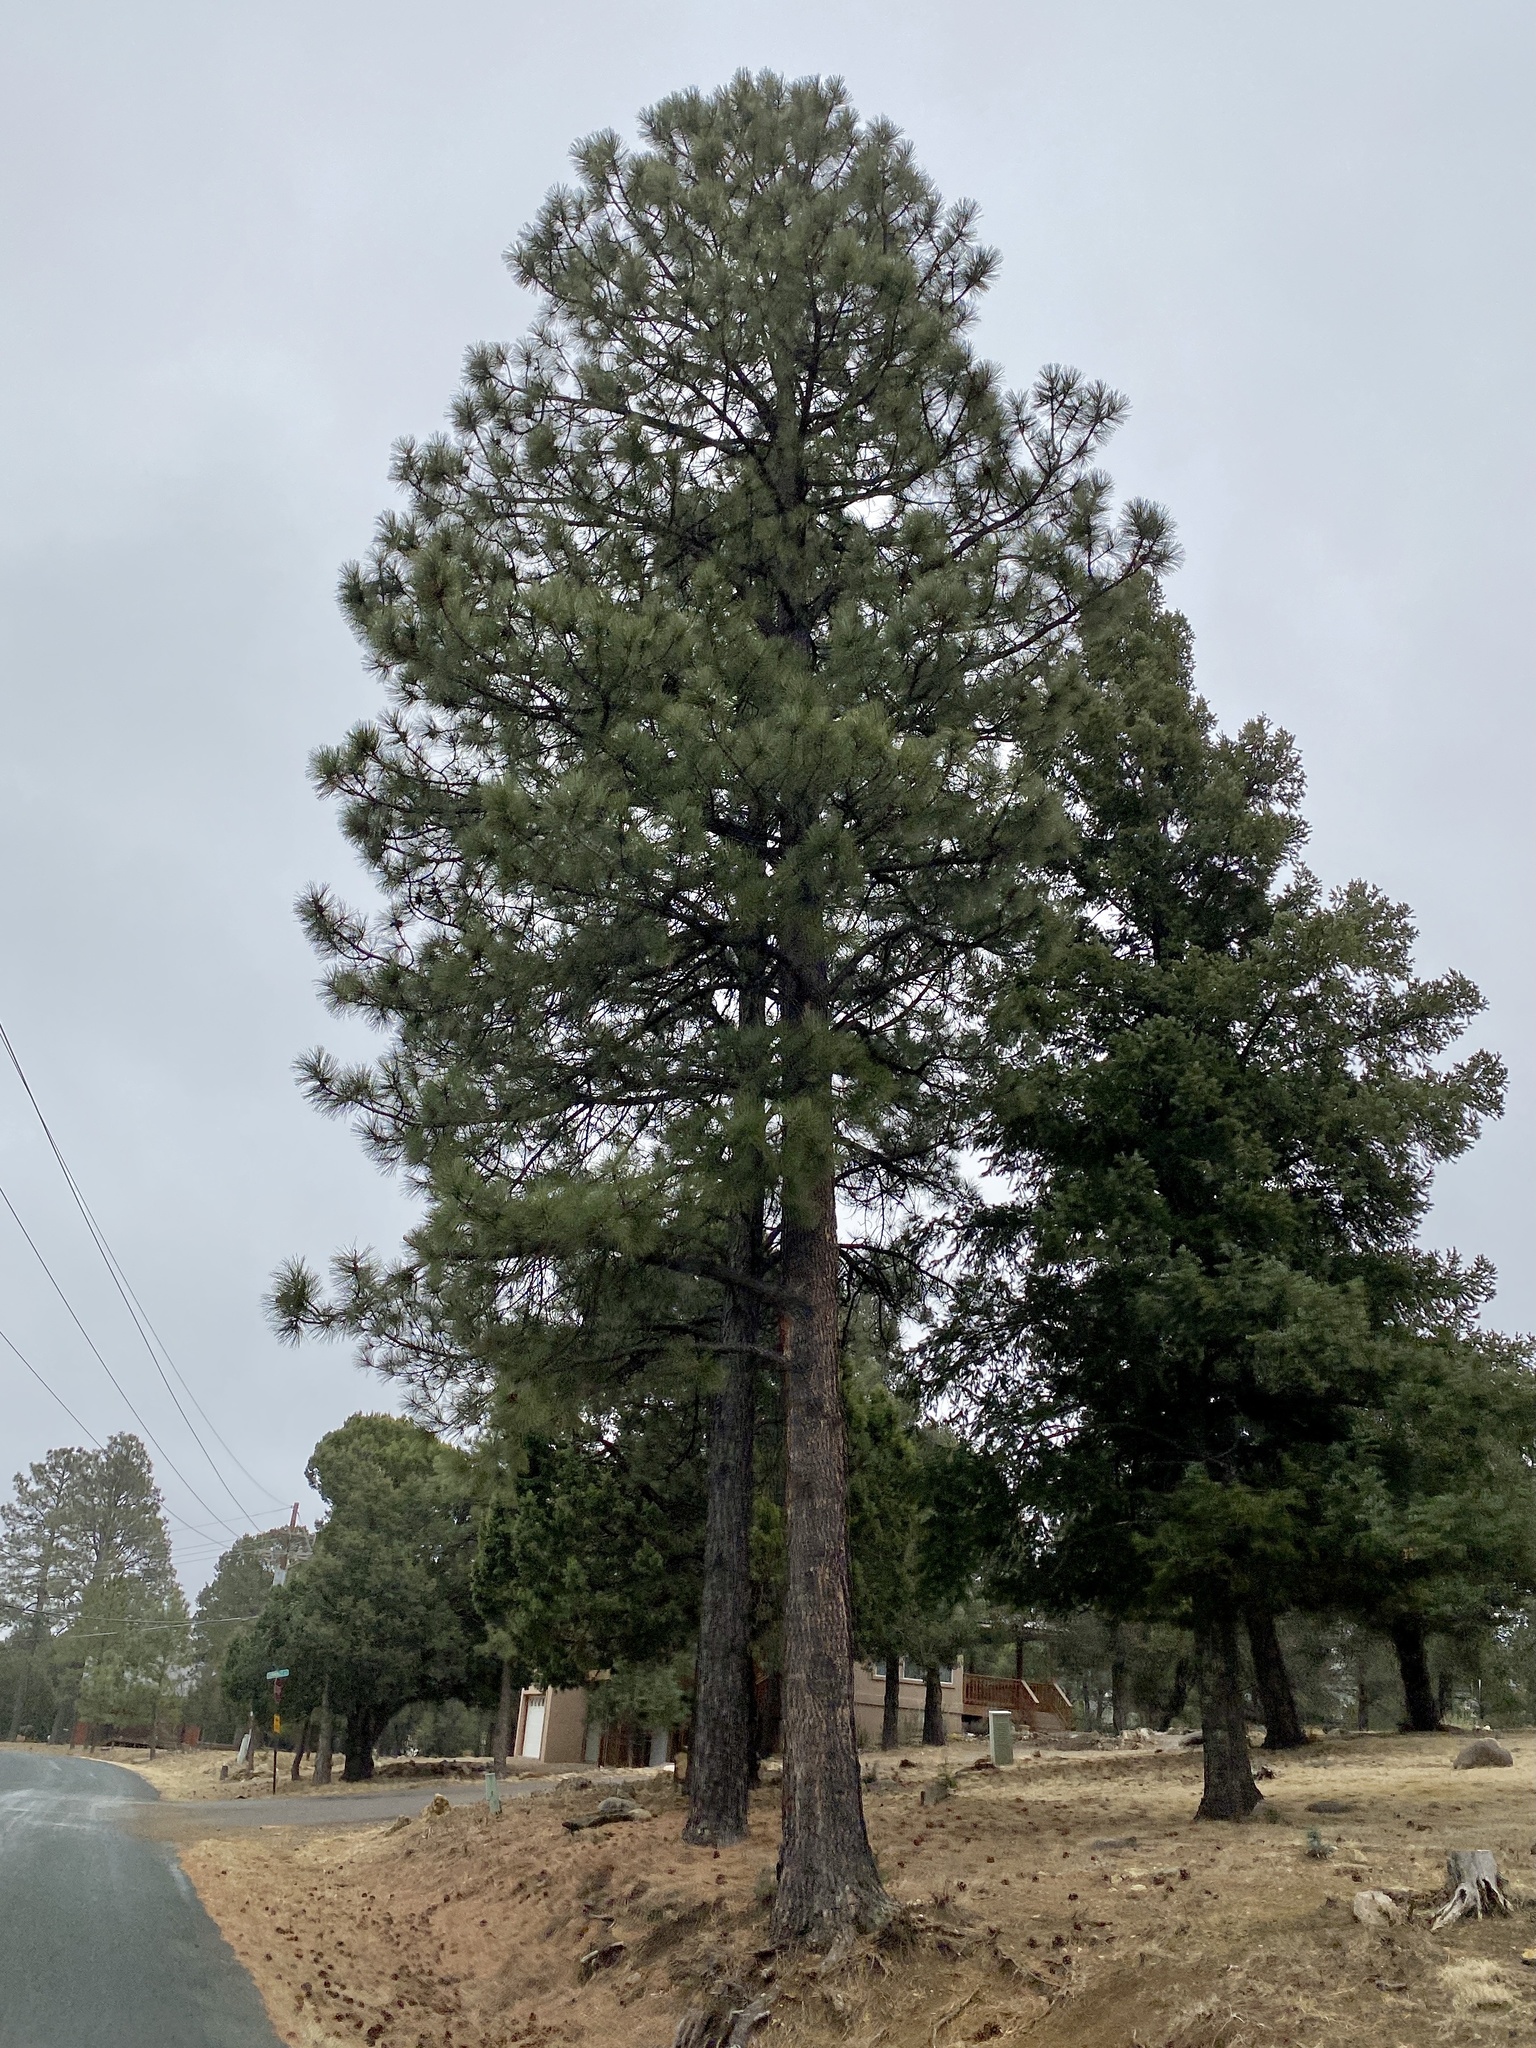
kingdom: Plantae
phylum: Tracheophyta
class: Pinopsida
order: Pinales
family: Pinaceae
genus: Pinus
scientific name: Pinus ponderosa
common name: Western yellow-pine
